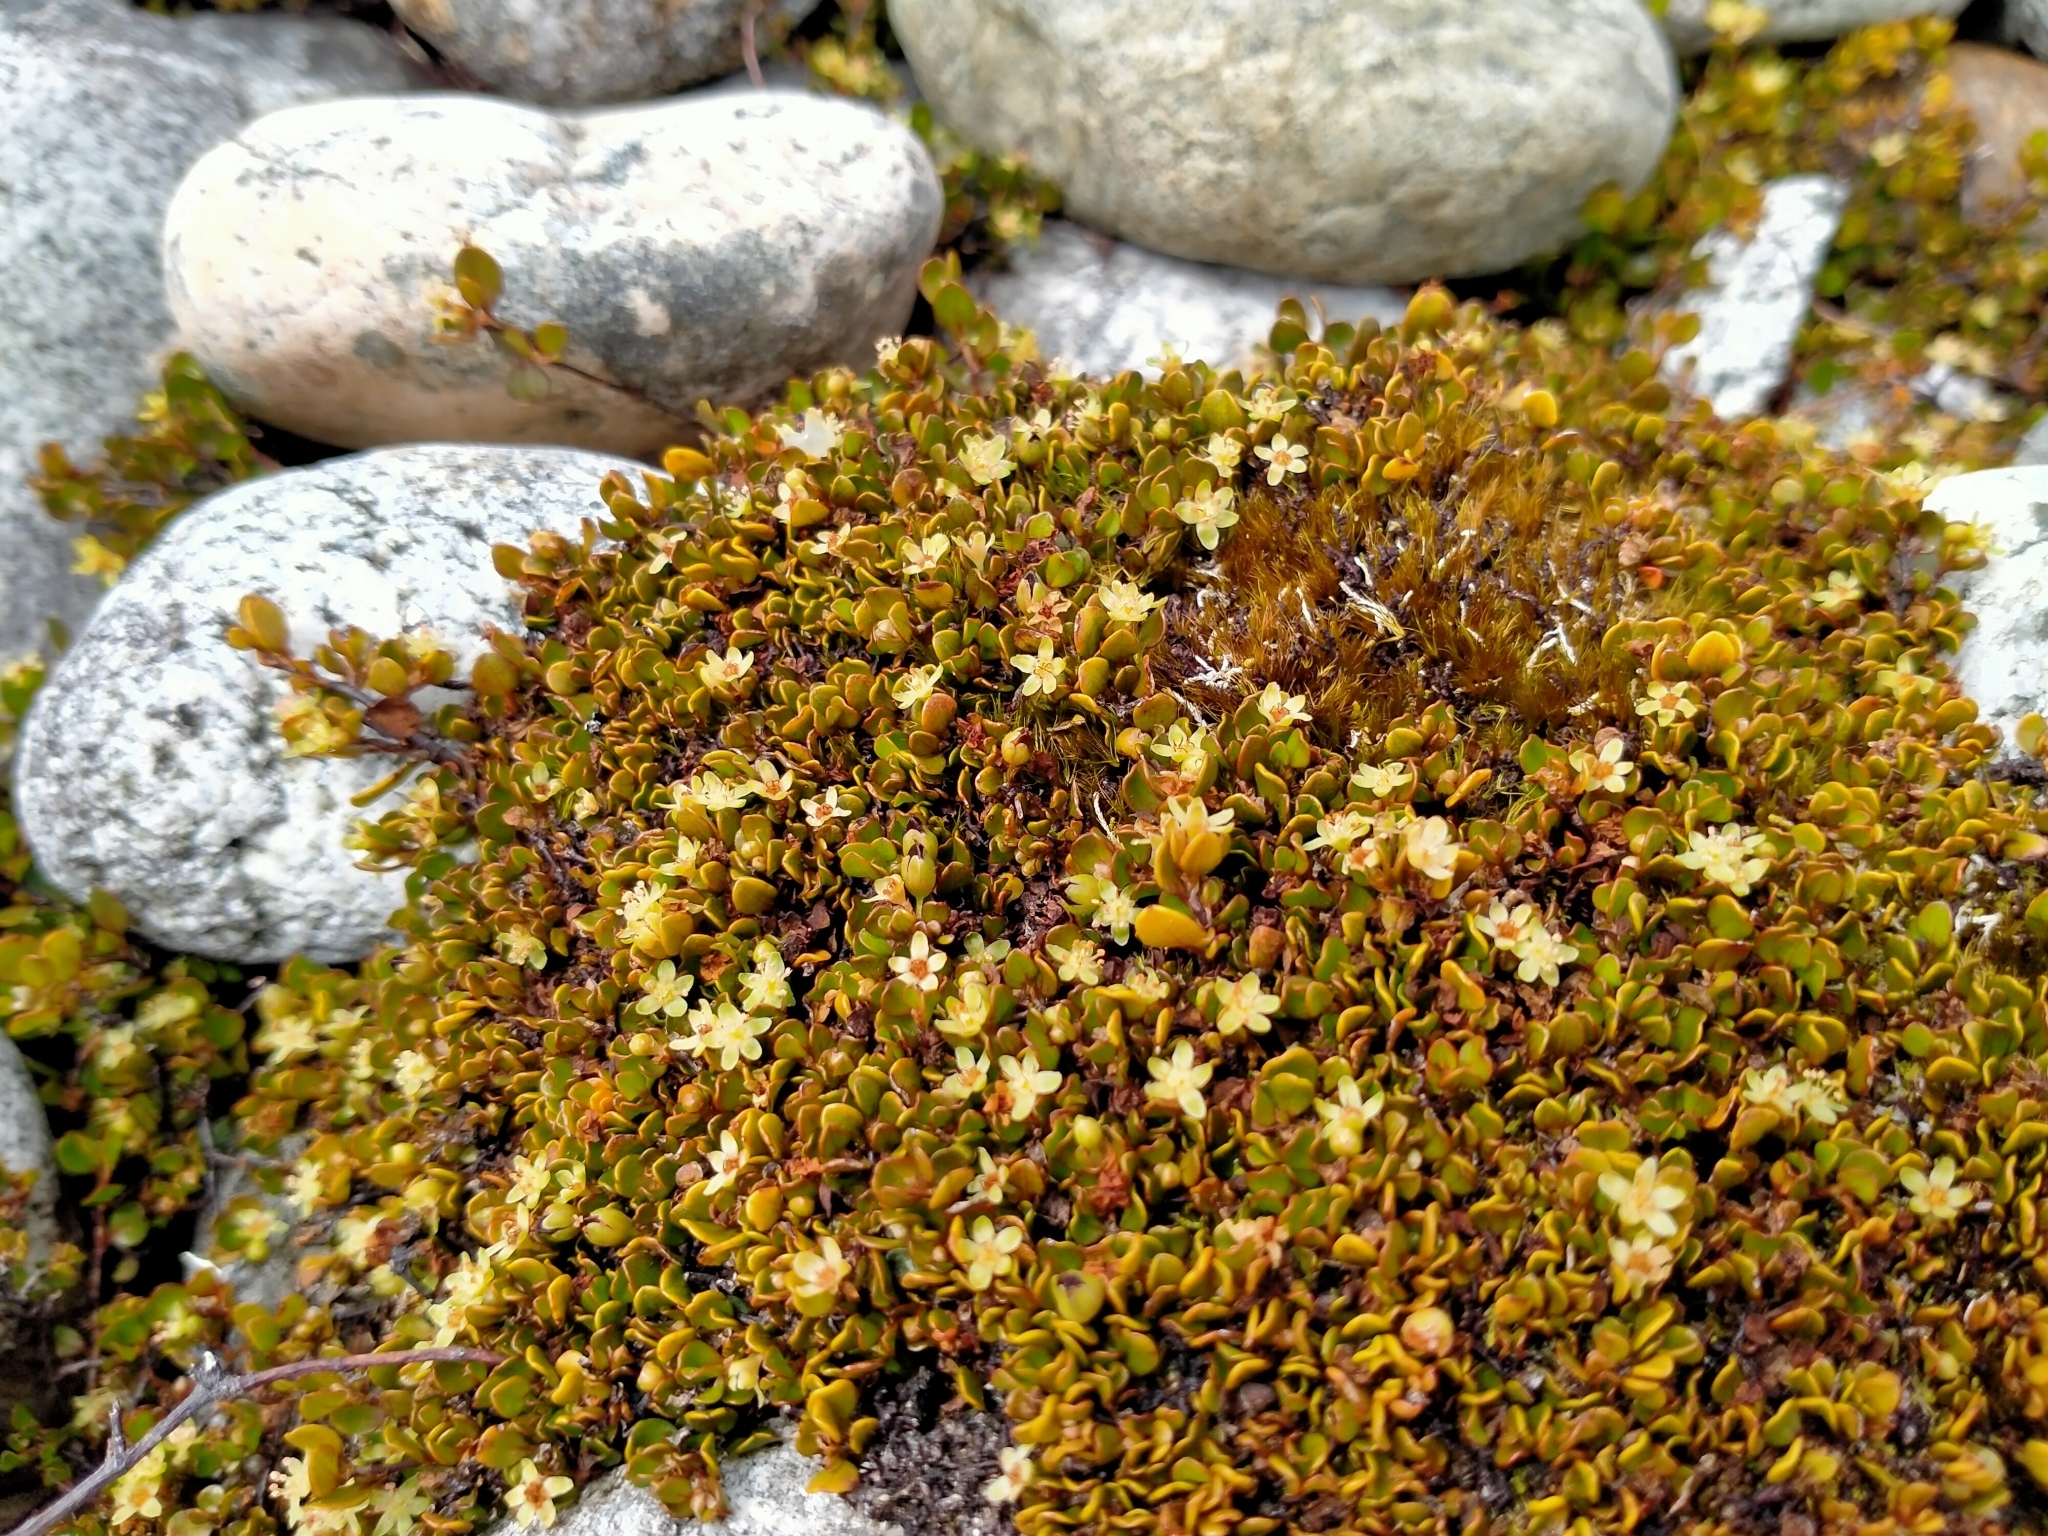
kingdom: Plantae
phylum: Tracheophyta
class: Magnoliopsida
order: Caryophyllales
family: Polygonaceae
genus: Muehlenbeckia
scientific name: Muehlenbeckia axillaris
